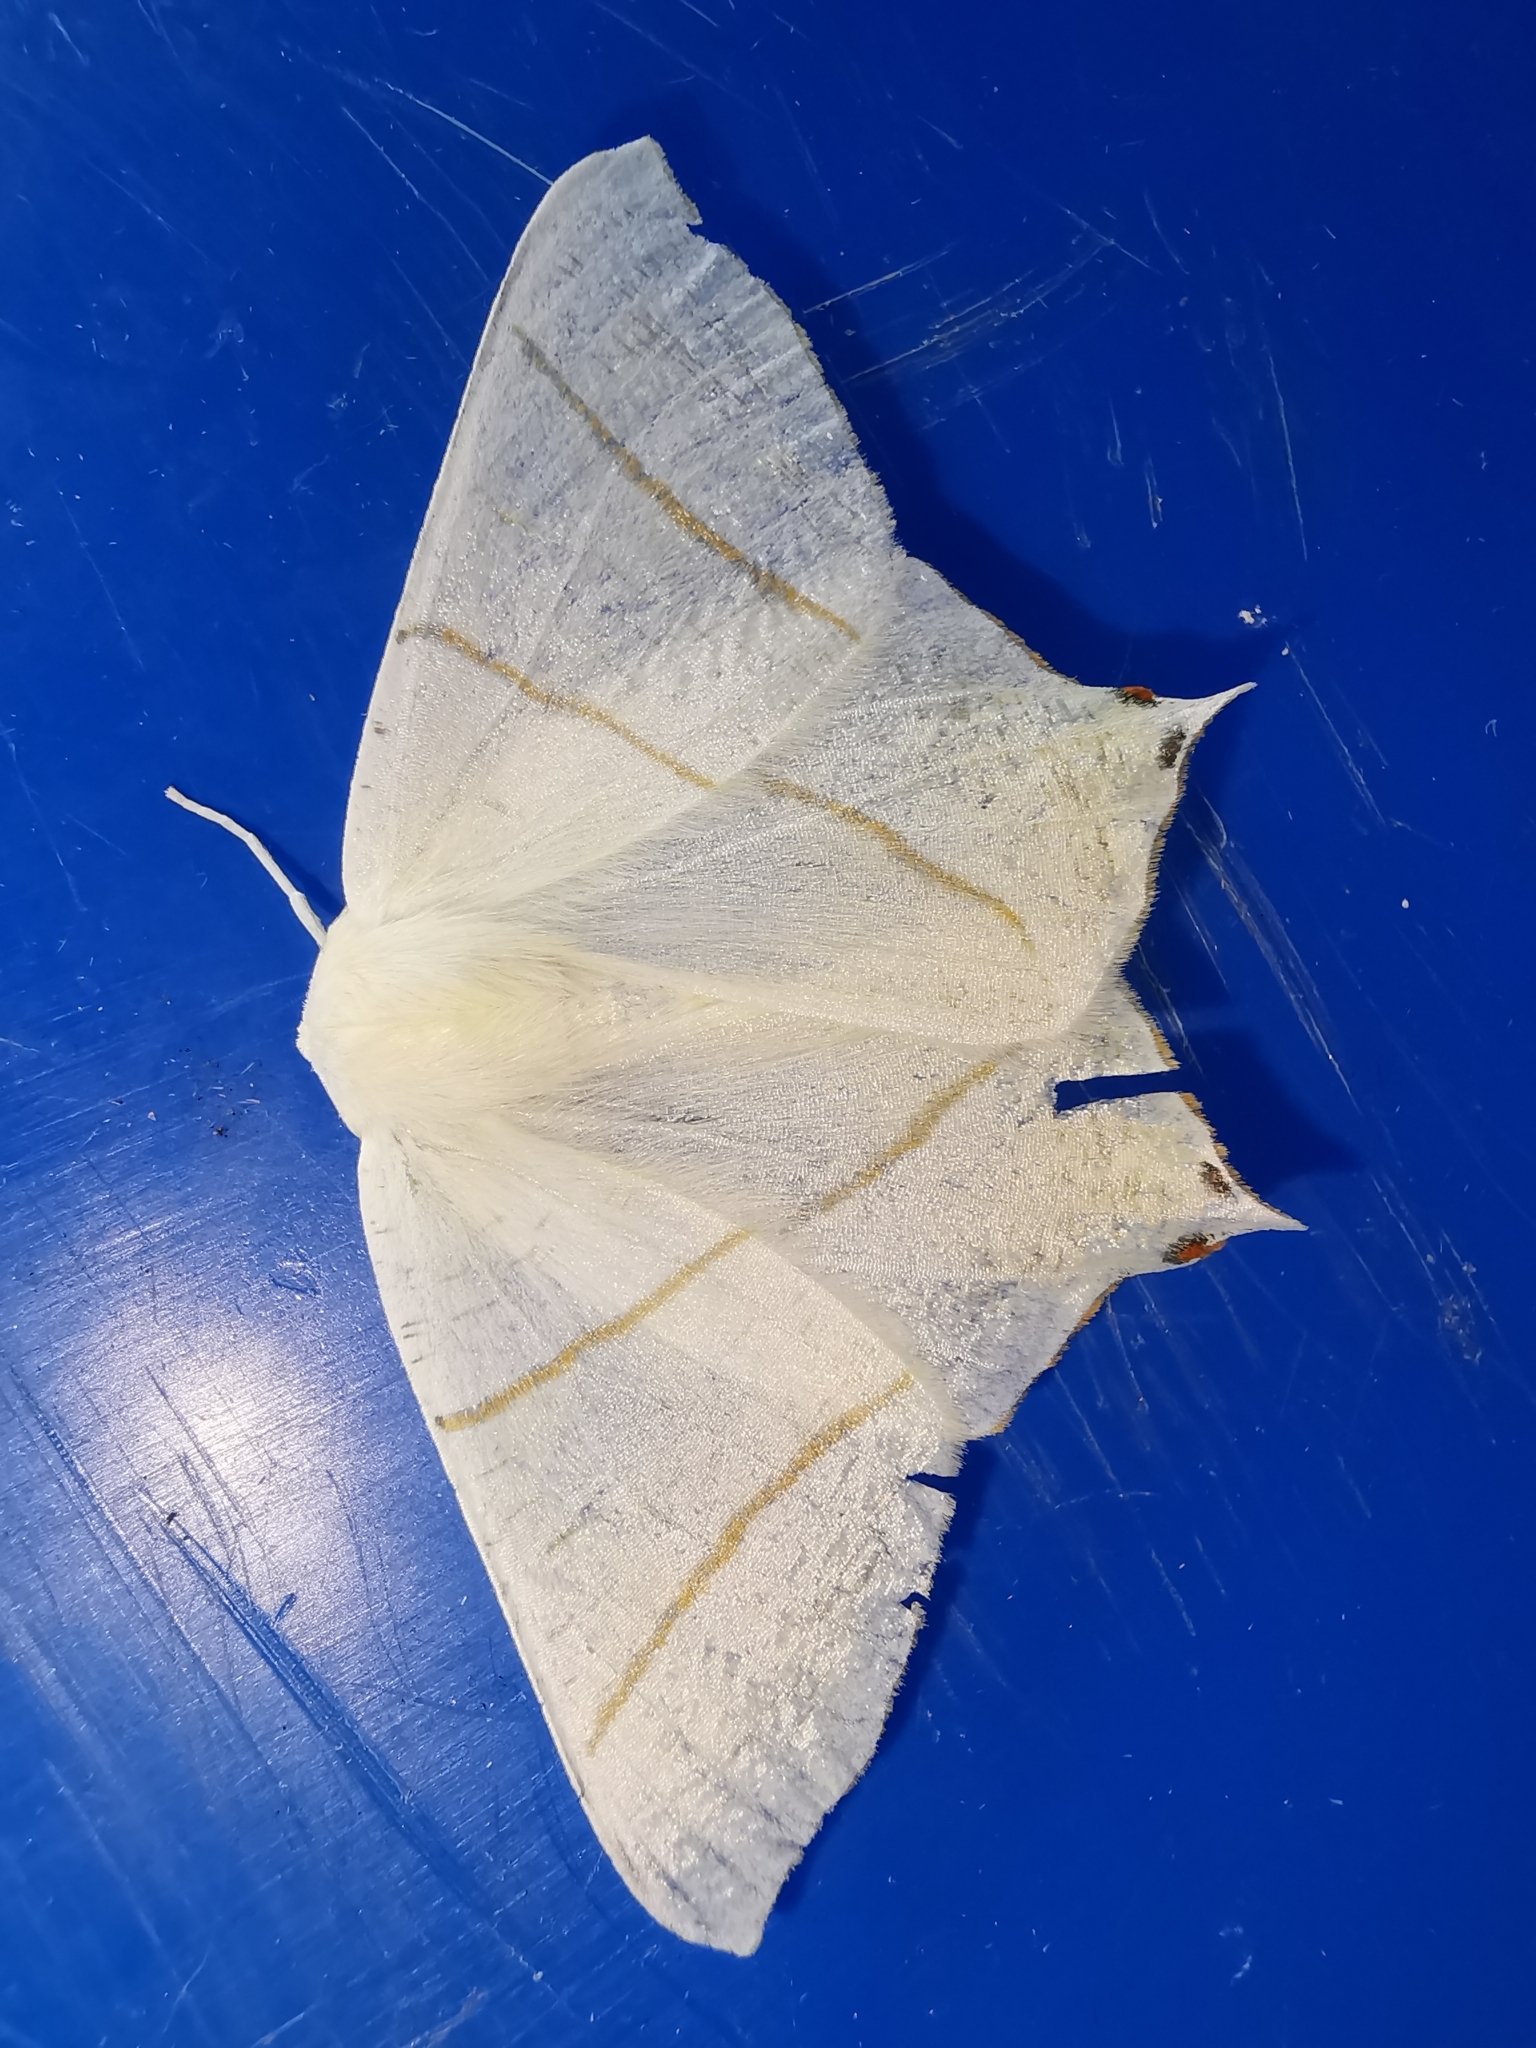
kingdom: Animalia
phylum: Arthropoda
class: Insecta
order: Lepidoptera
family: Geometridae
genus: Ourapteryx
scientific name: Ourapteryx sambucaria
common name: Swallow-tailed moth
